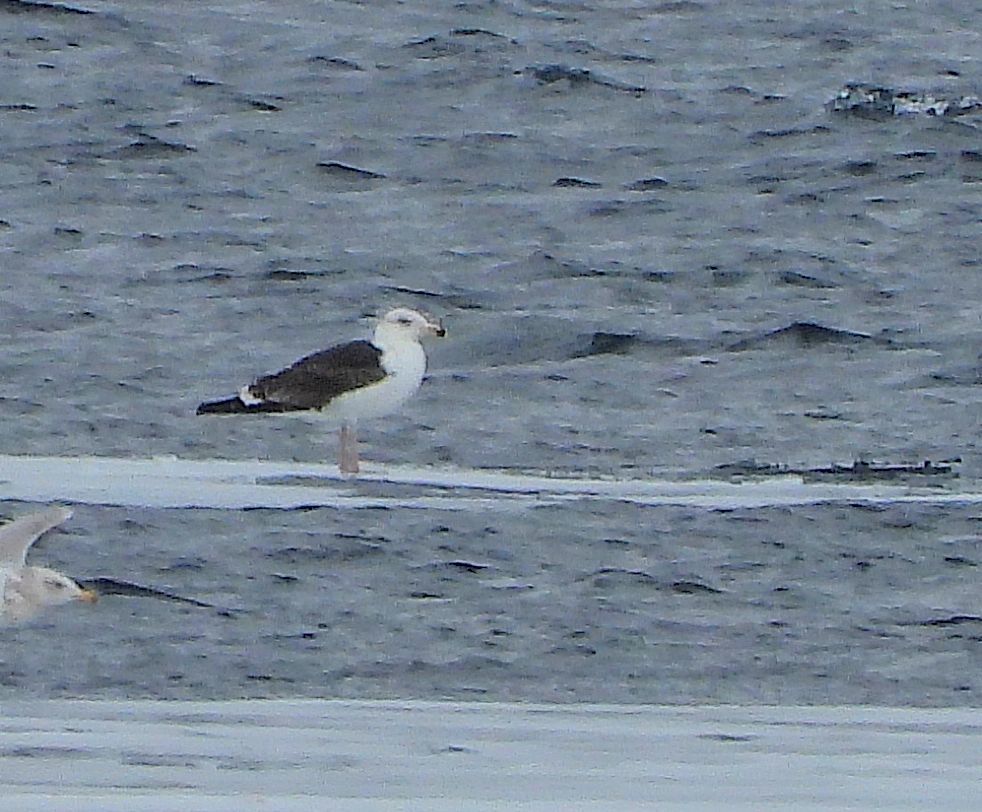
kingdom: Animalia
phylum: Chordata
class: Aves
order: Charadriiformes
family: Laridae
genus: Larus
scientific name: Larus marinus
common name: Great black-backed gull
